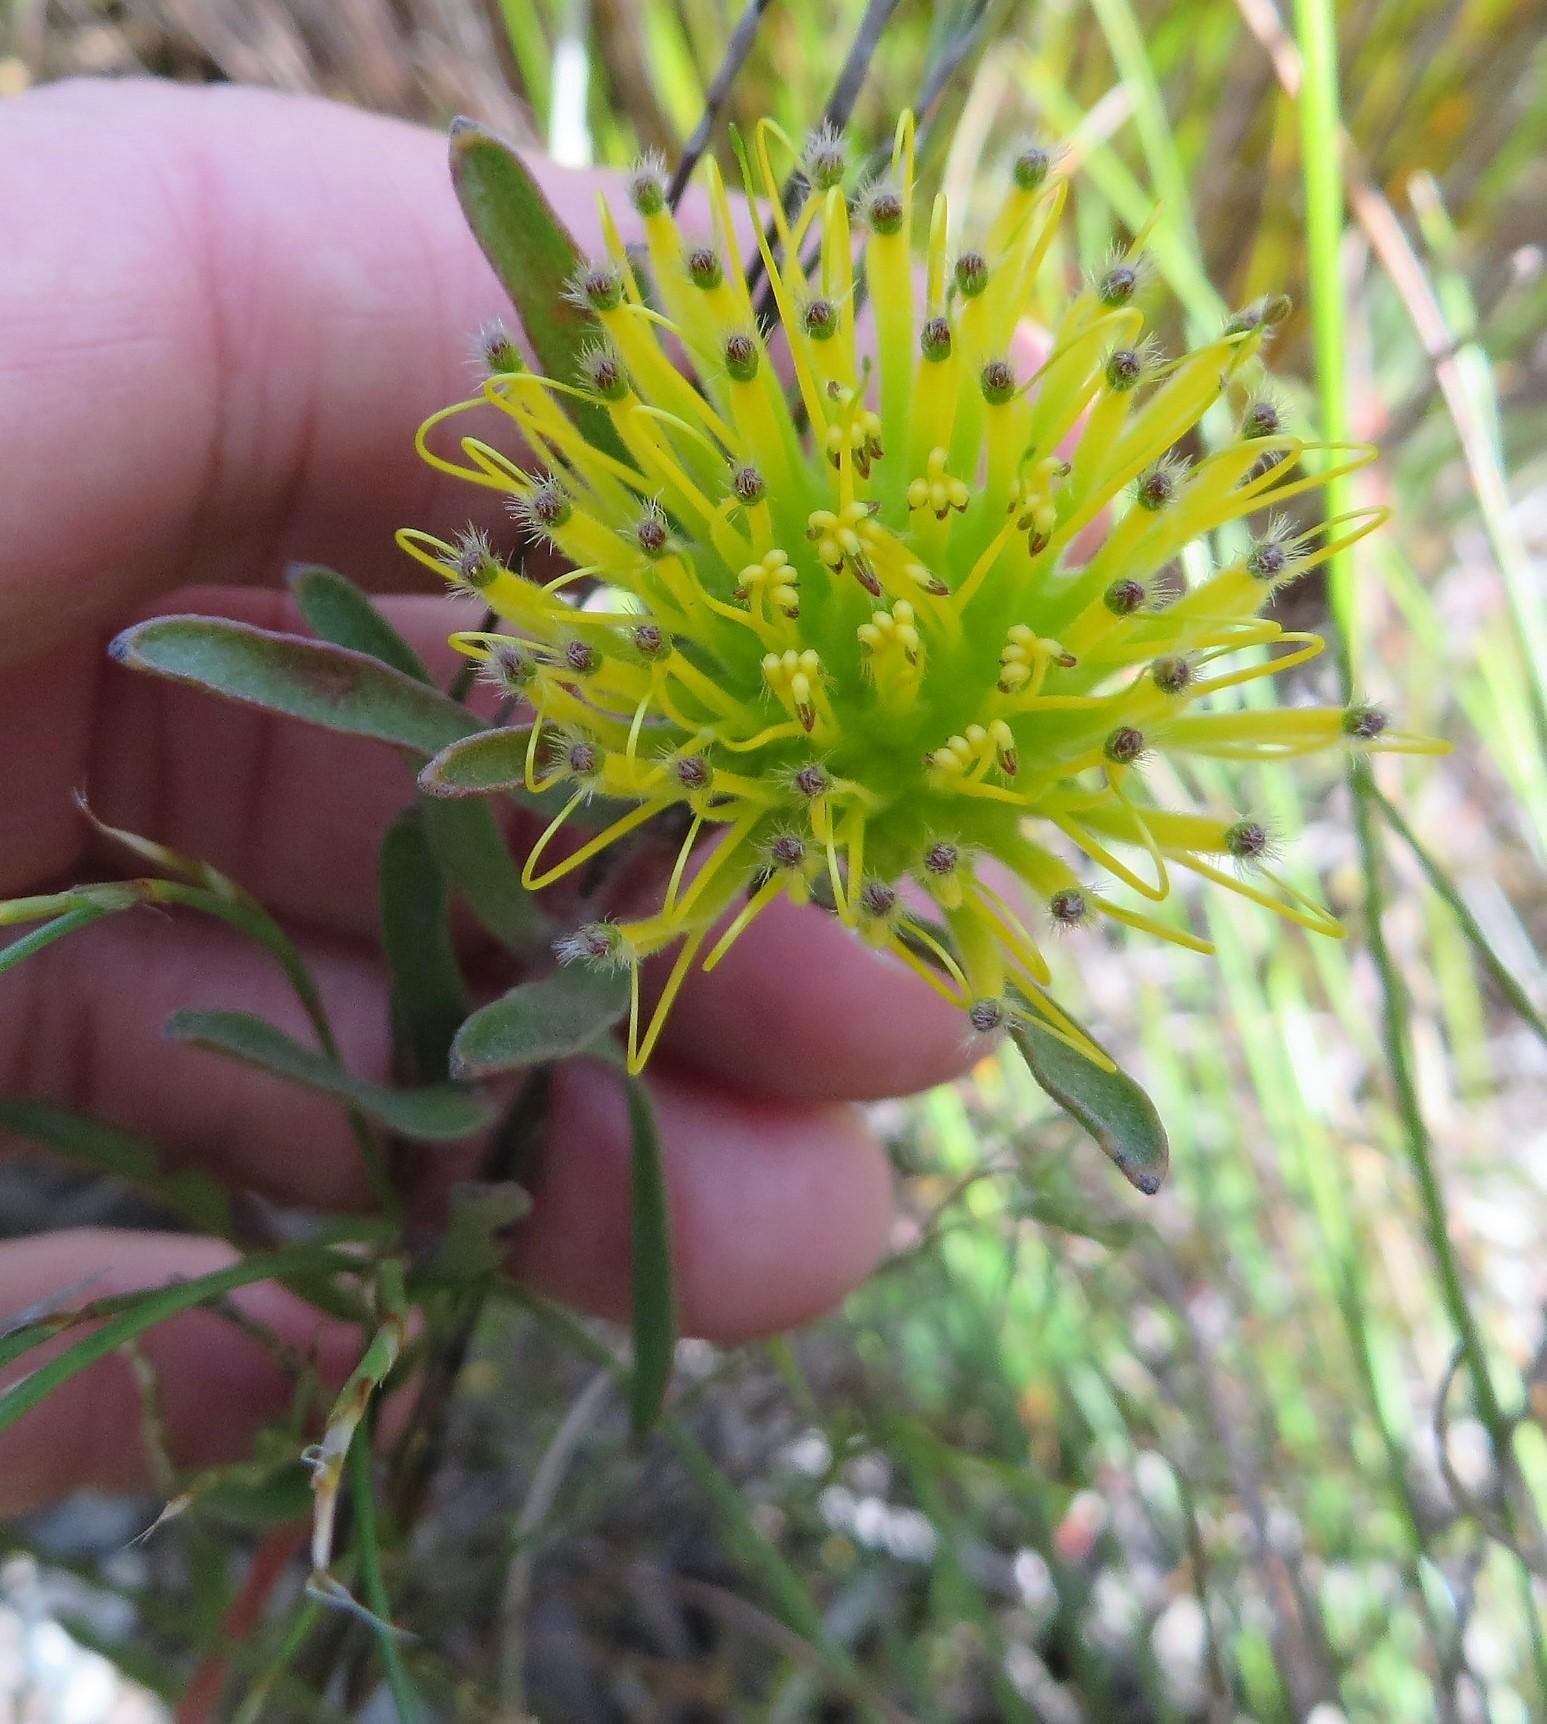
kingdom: Plantae
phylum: Tracheophyta
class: Magnoliopsida
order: Proteales
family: Proteaceae
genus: Leucospermum
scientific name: Leucospermum gracile
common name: Hermanus pincushion
